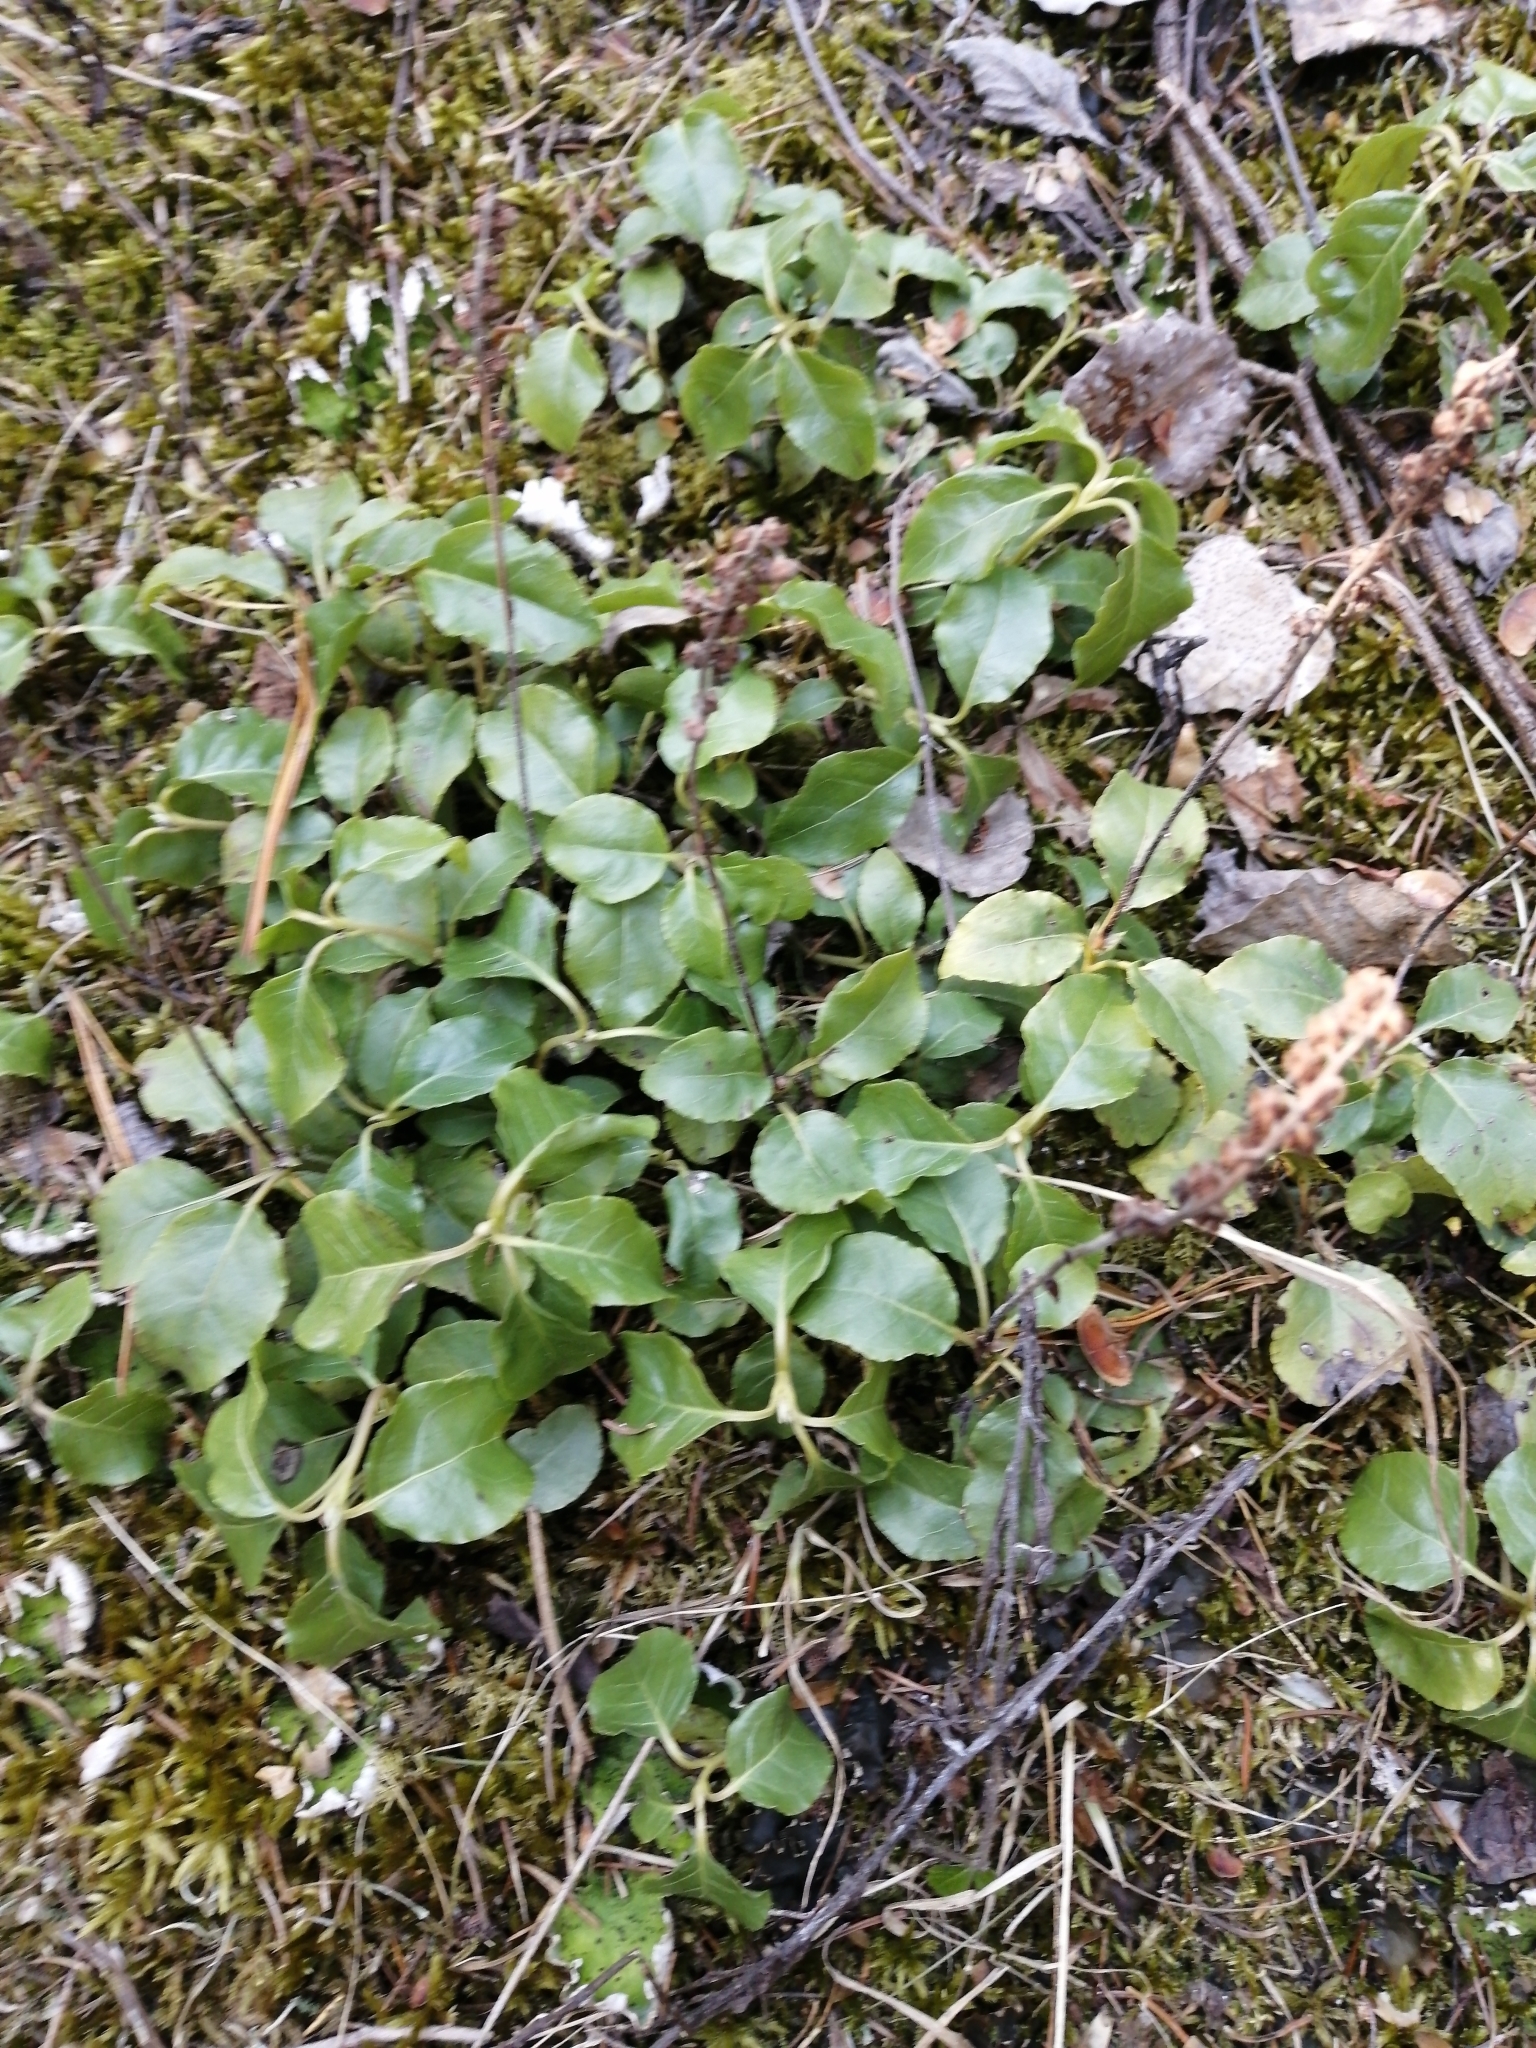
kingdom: Plantae
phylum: Tracheophyta
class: Magnoliopsida
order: Ericales
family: Ericaceae
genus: Orthilia
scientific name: Orthilia secunda
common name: One-sided orthilia
